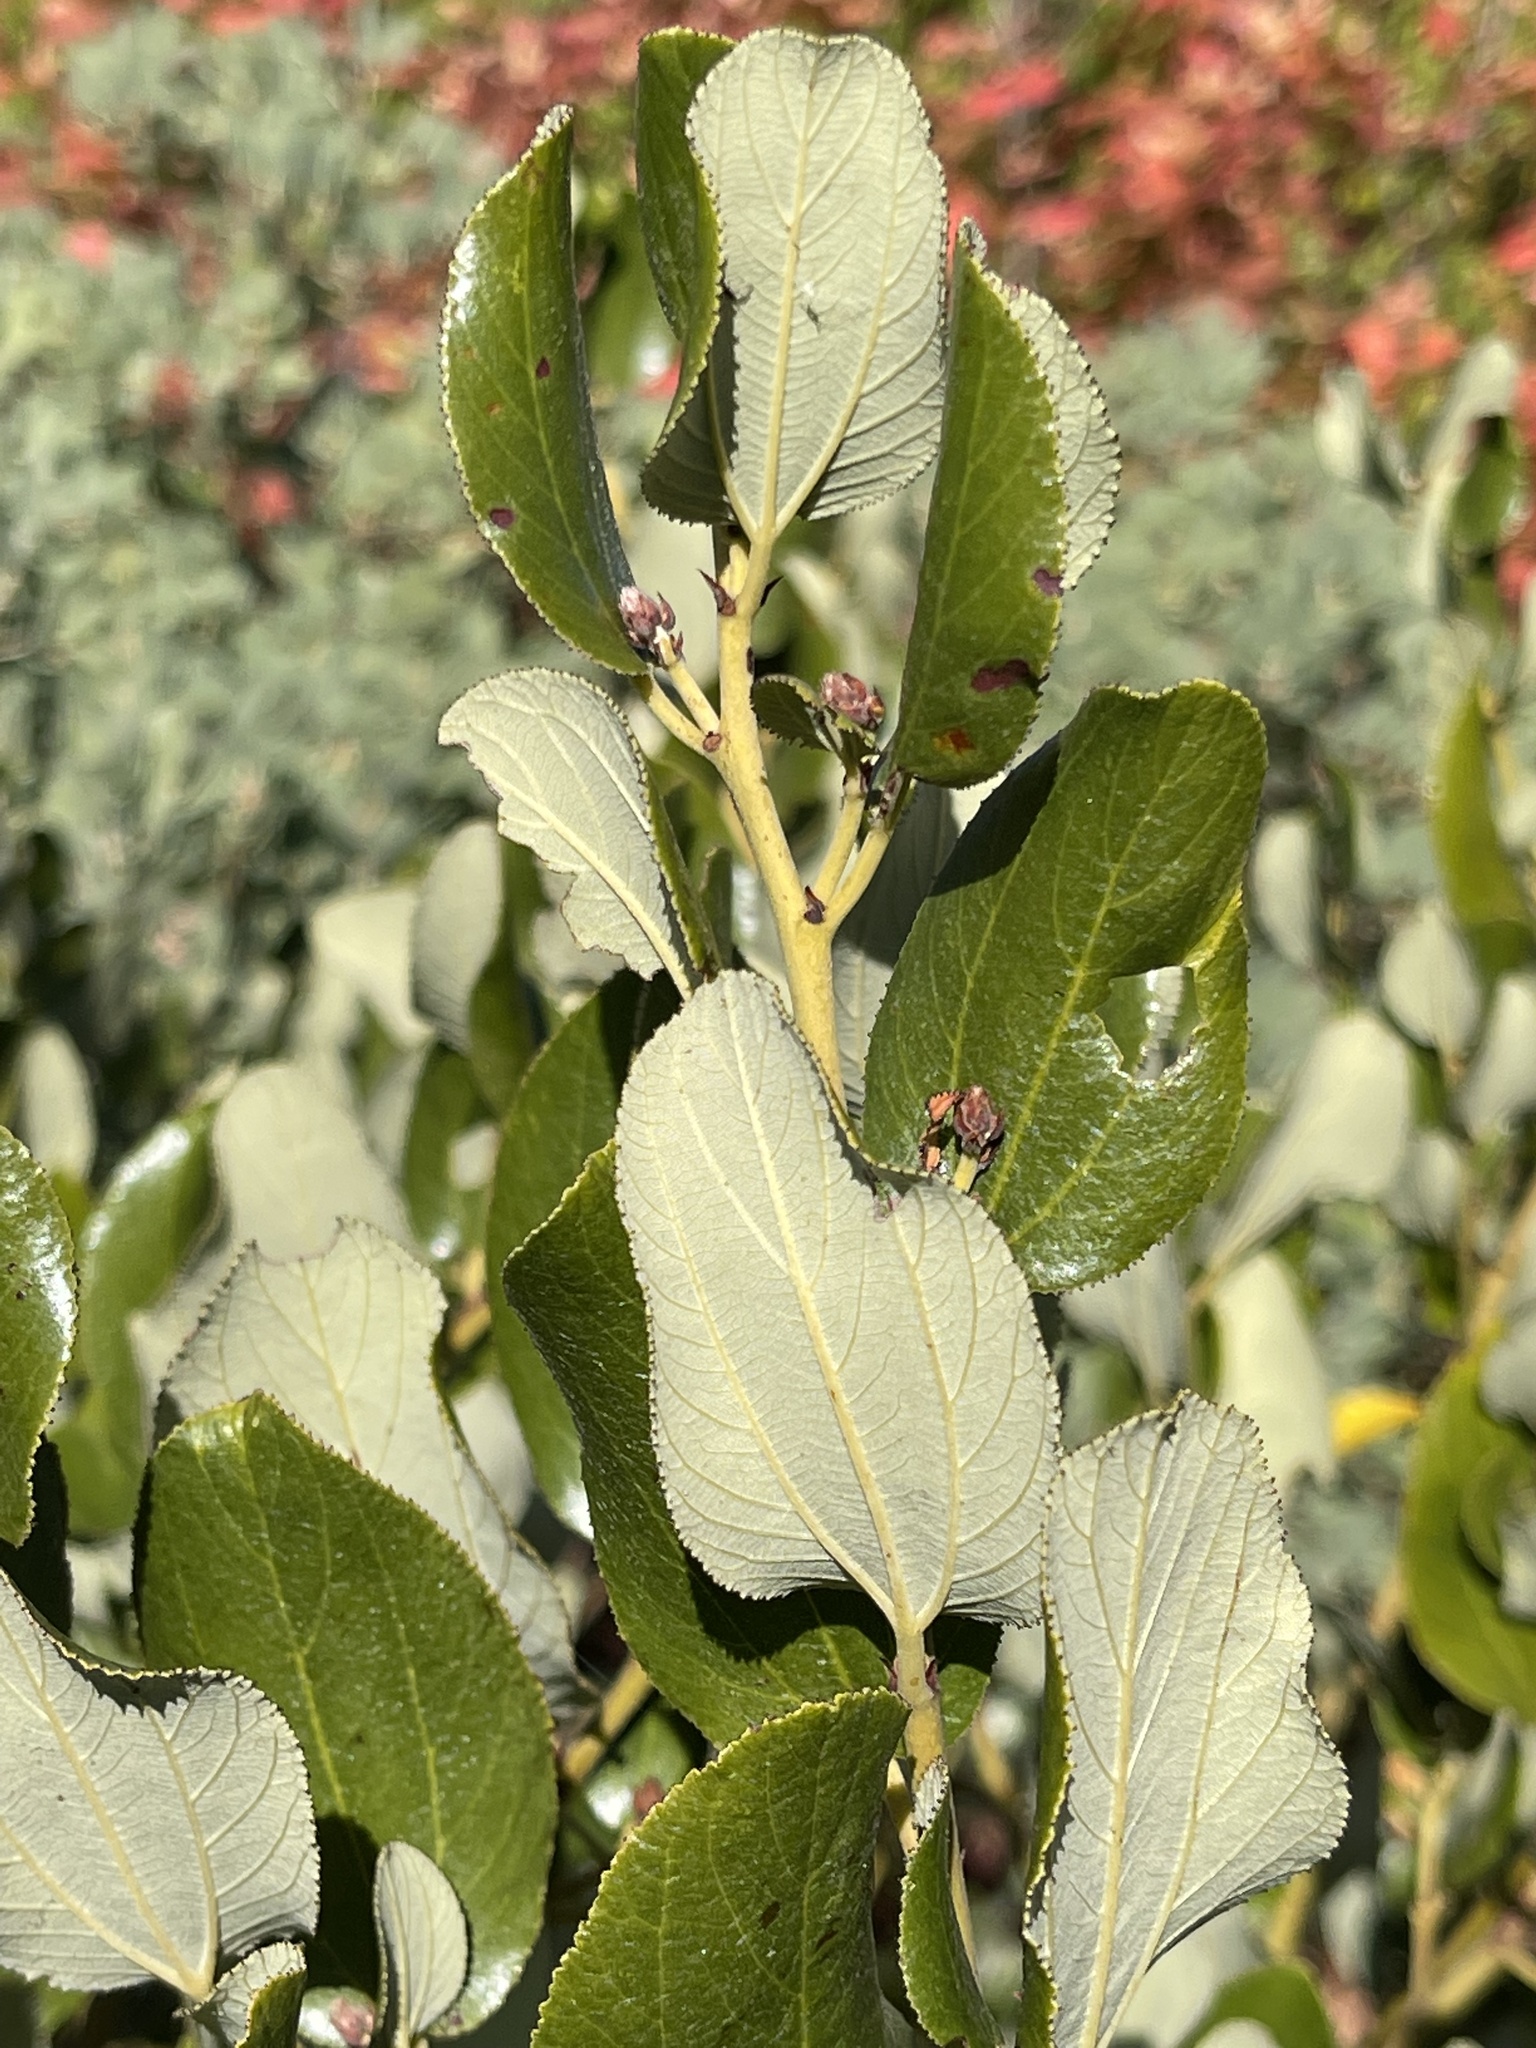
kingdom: Plantae
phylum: Tracheophyta
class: Magnoliopsida
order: Rosales
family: Rhamnaceae
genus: Ceanothus
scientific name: Ceanothus velutinus
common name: Snowbrush
